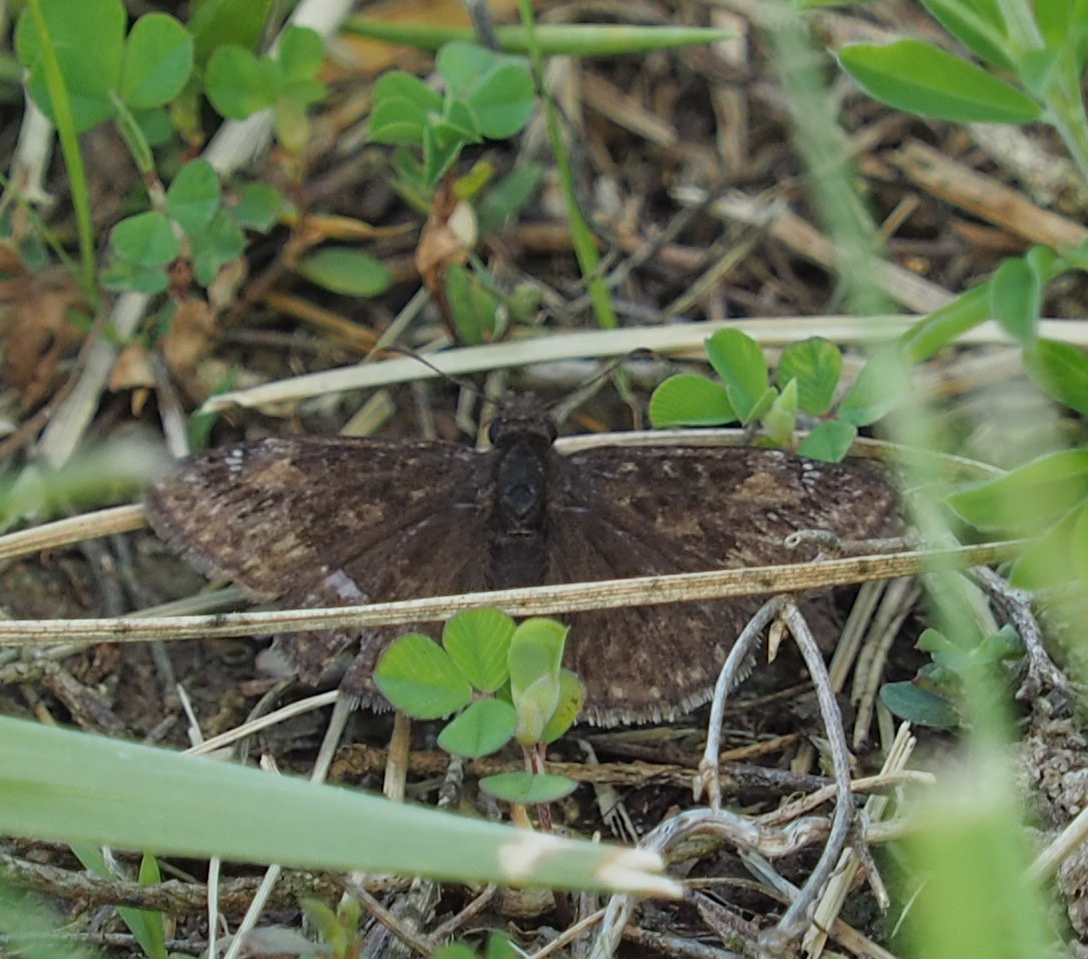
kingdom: Animalia
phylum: Arthropoda
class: Insecta
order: Lepidoptera
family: Hesperiidae
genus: Erynnis
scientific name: Erynnis baptisiae
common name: Wild indigo duskywing
